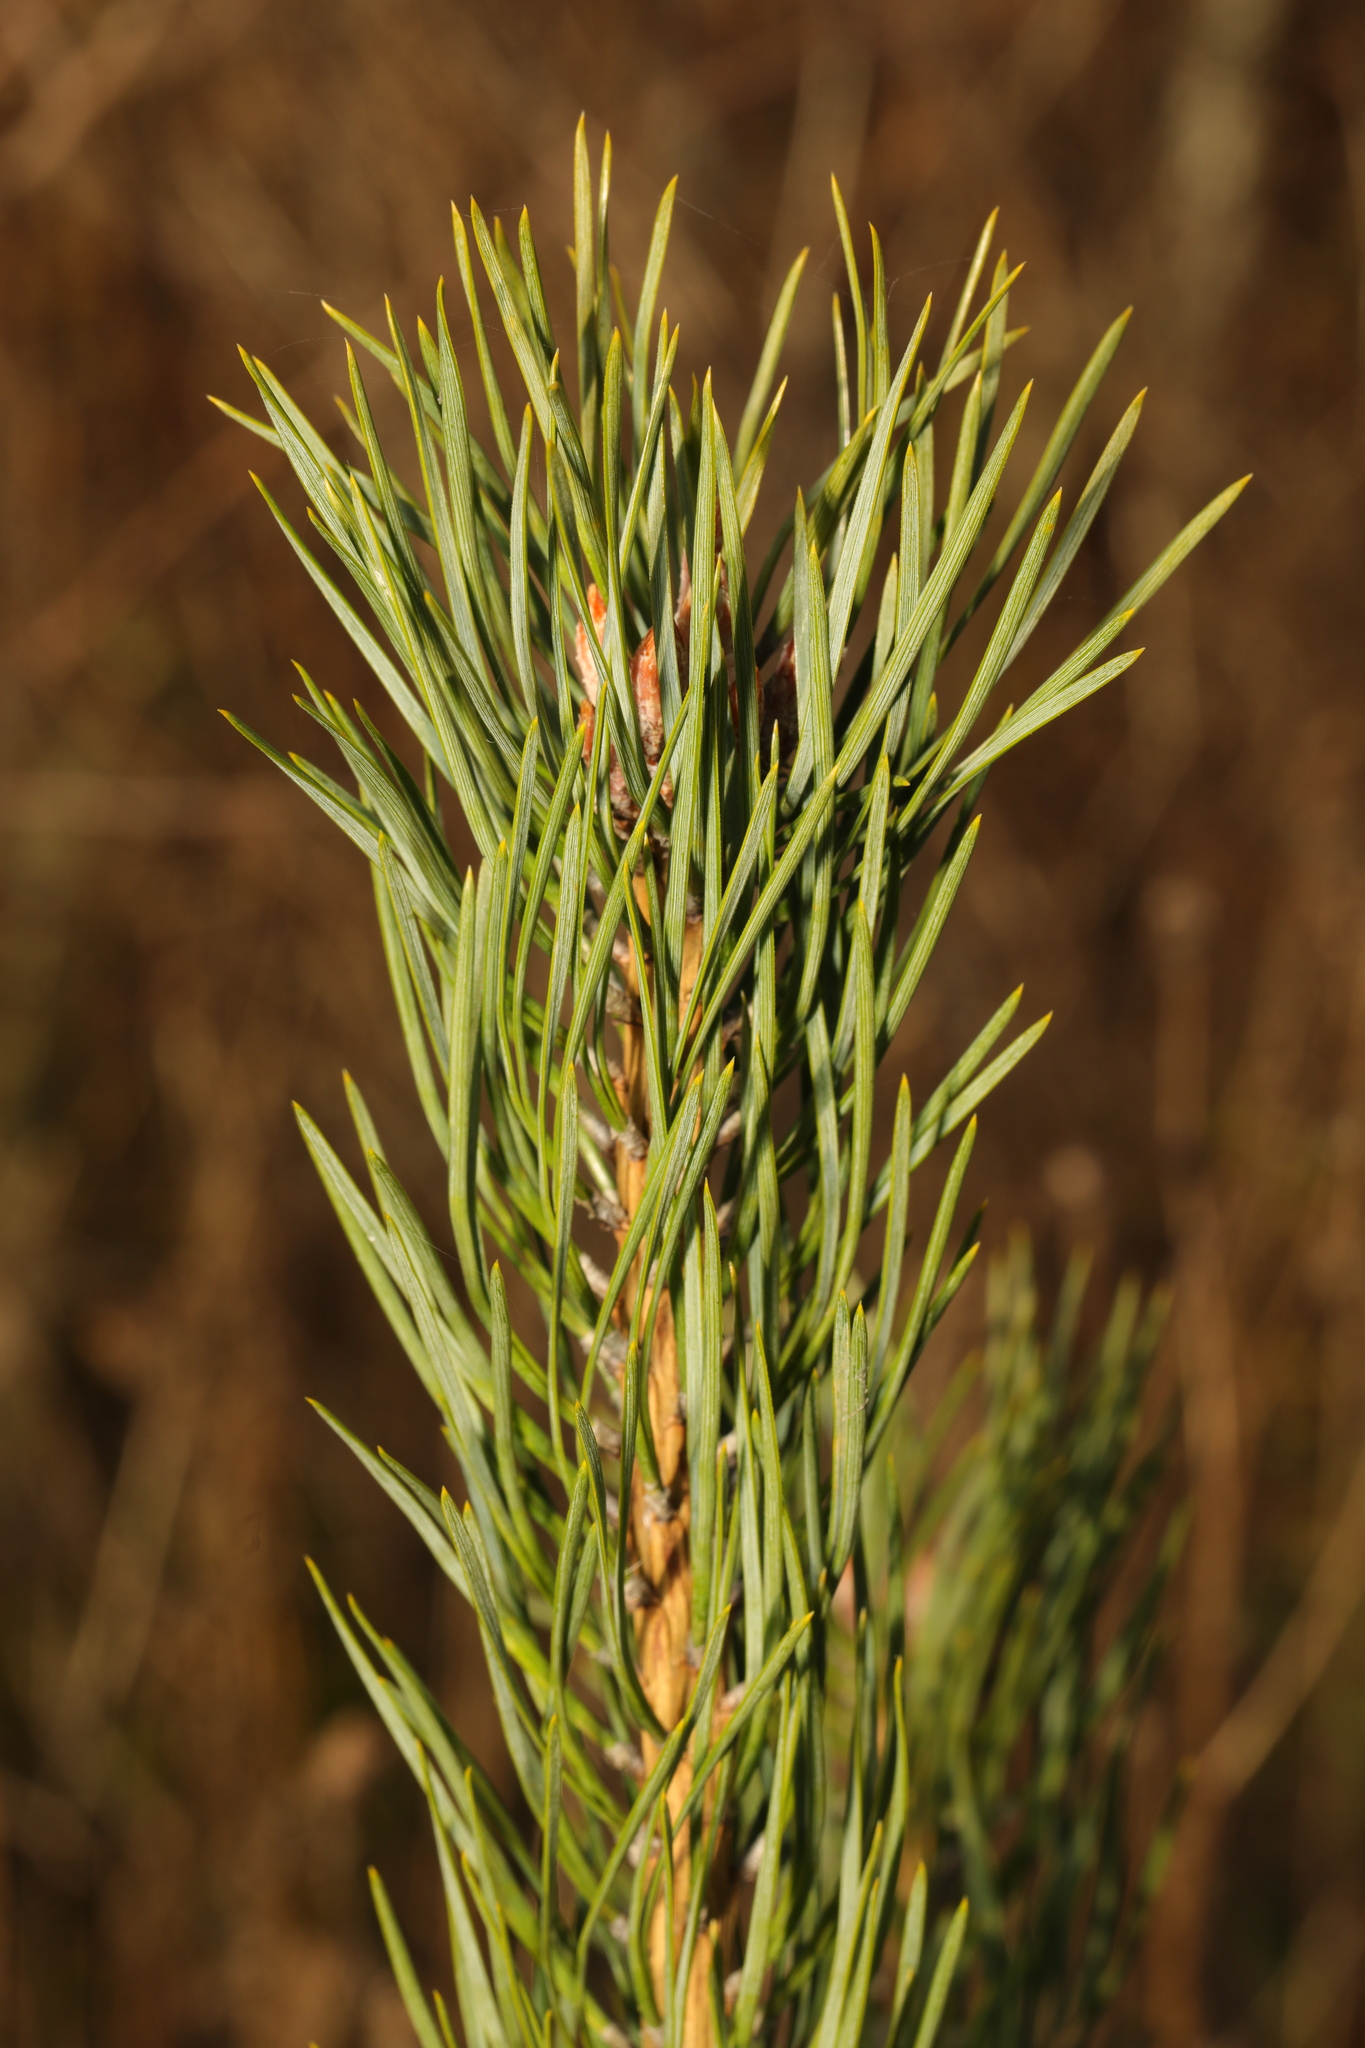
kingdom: Plantae
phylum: Tracheophyta
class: Pinopsida
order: Pinales
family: Pinaceae
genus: Pinus
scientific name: Pinus sylvestris
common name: Scots pine
